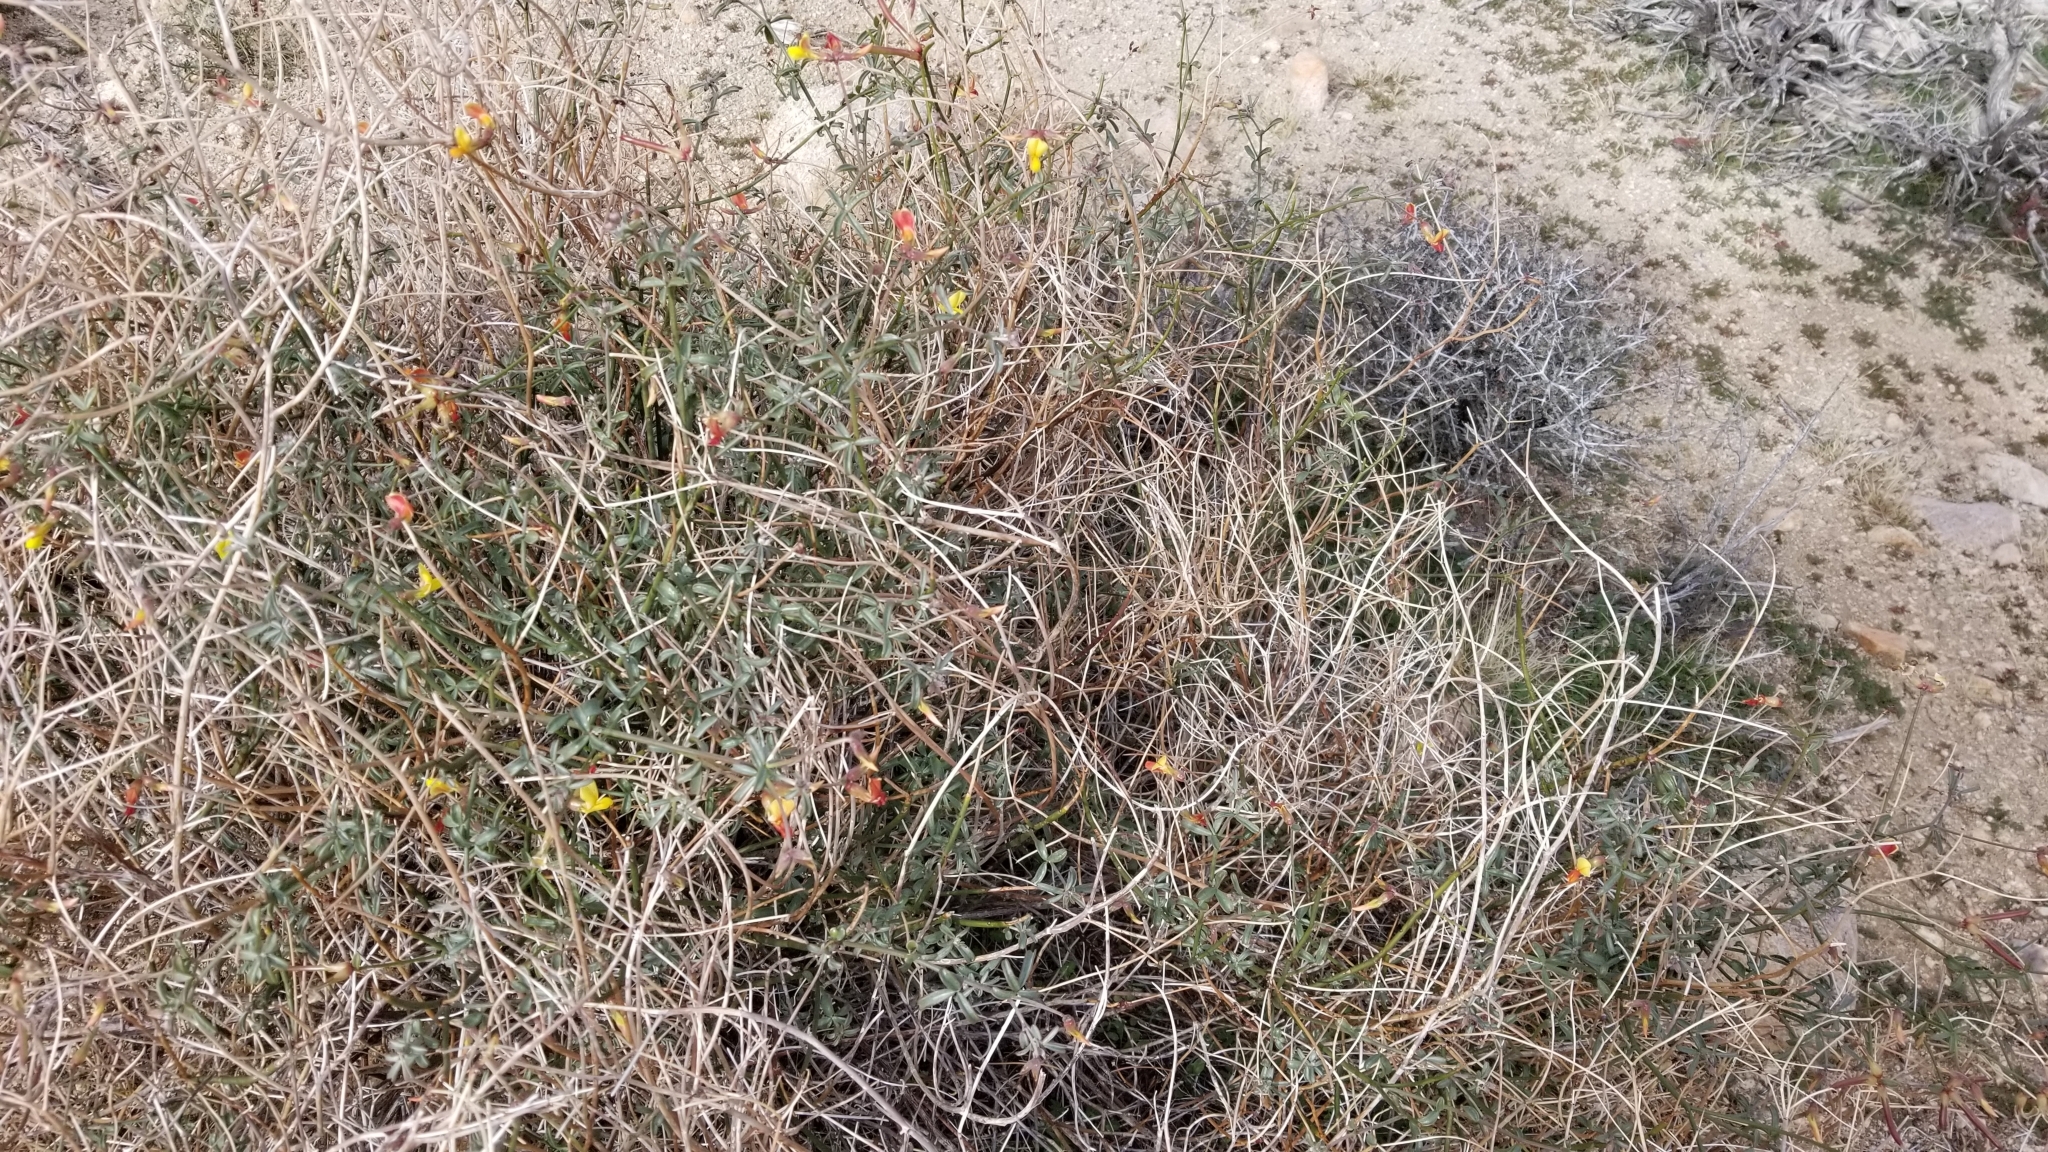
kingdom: Plantae
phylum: Tracheophyta
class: Magnoliopsida
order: Fabales
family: Fabaceae
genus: Acmispon
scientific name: Acmispon rigidus
